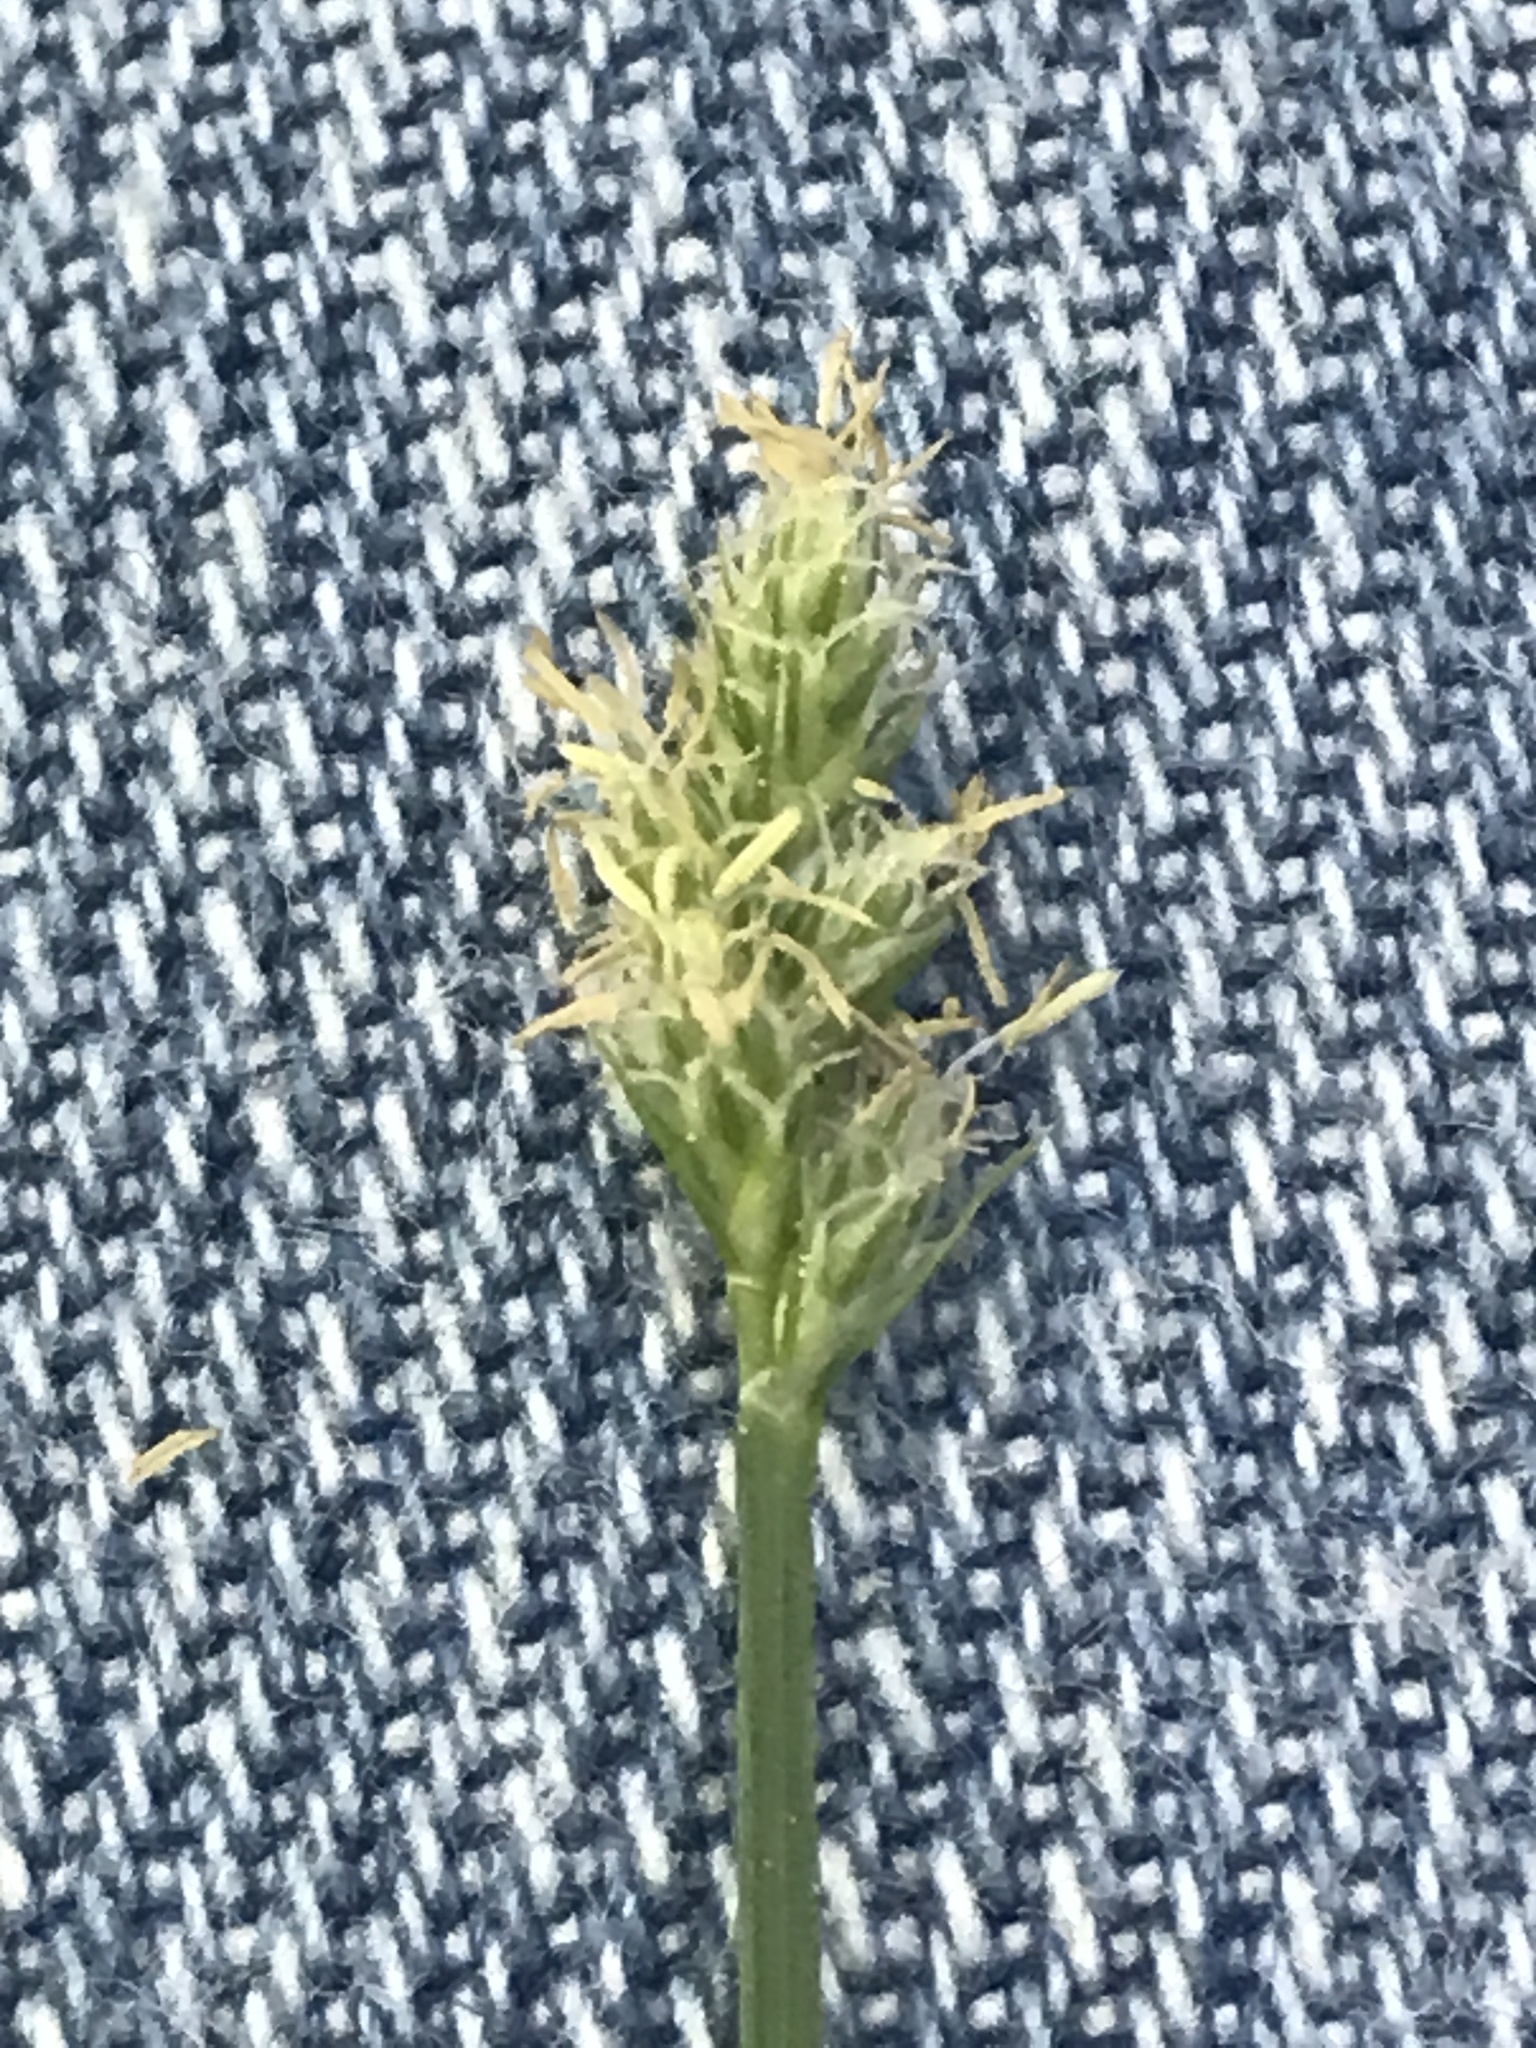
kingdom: Plantae
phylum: Tracheophyta
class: Liliopsida
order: Poales
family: Cyperaceae
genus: Carex
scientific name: Carex cephalophora
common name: Oval-headed sedge
